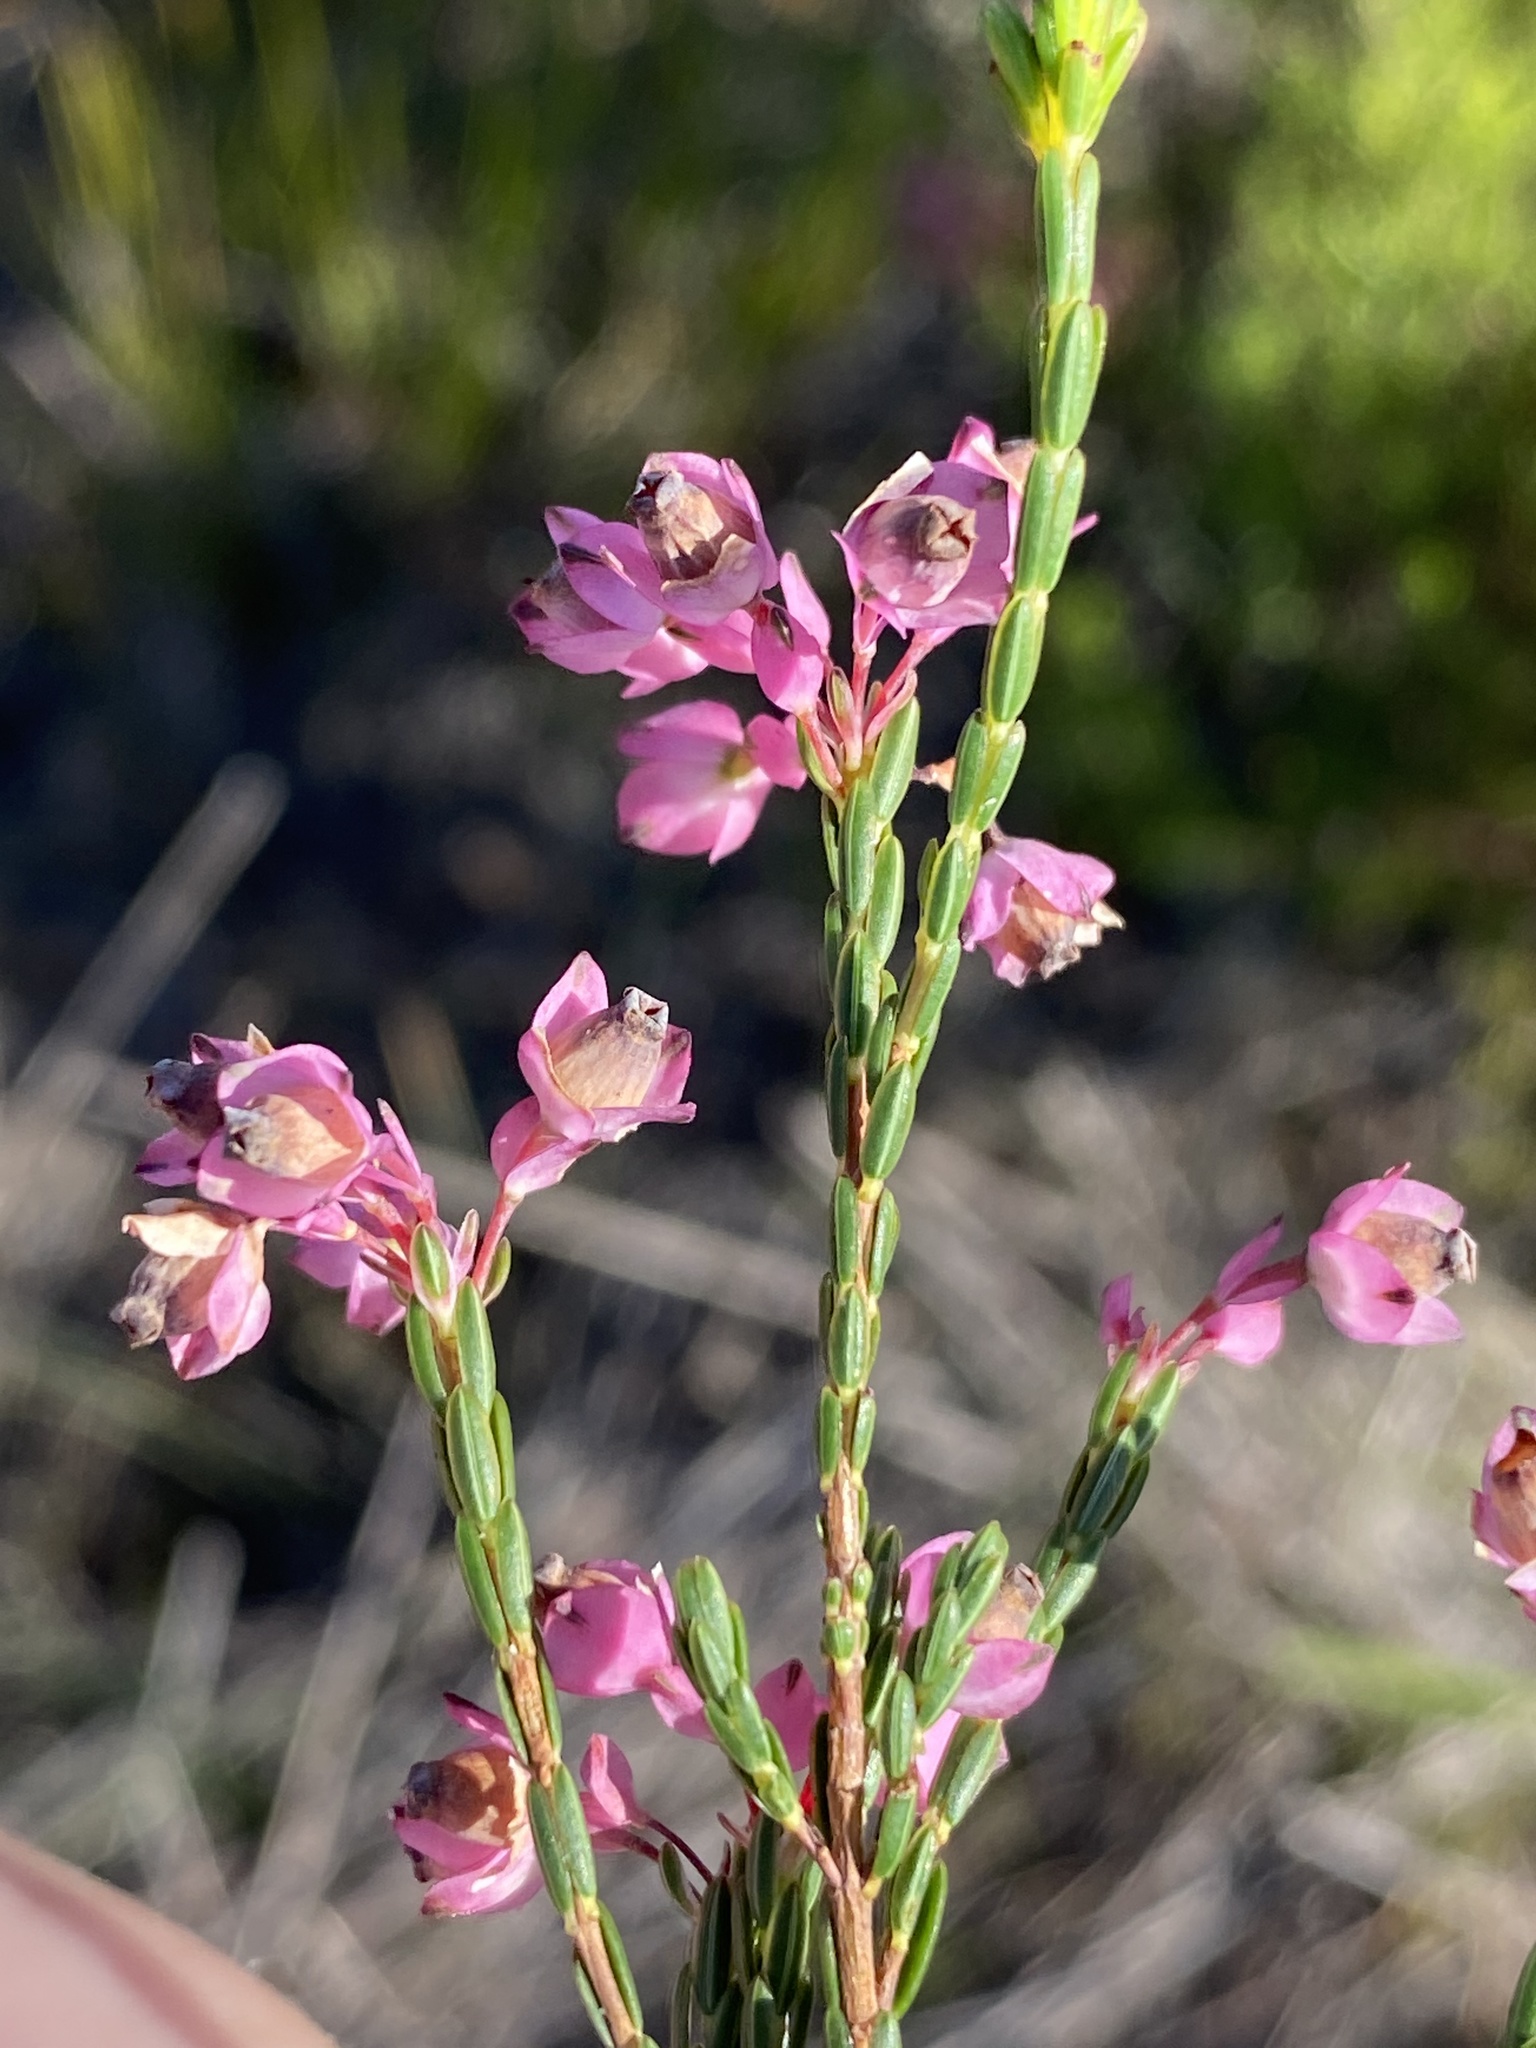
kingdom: Plantae
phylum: Tracheophyta
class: Magnoliopsida
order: Ericales
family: Ericaceae
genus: Erica
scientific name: Erica corifolia
